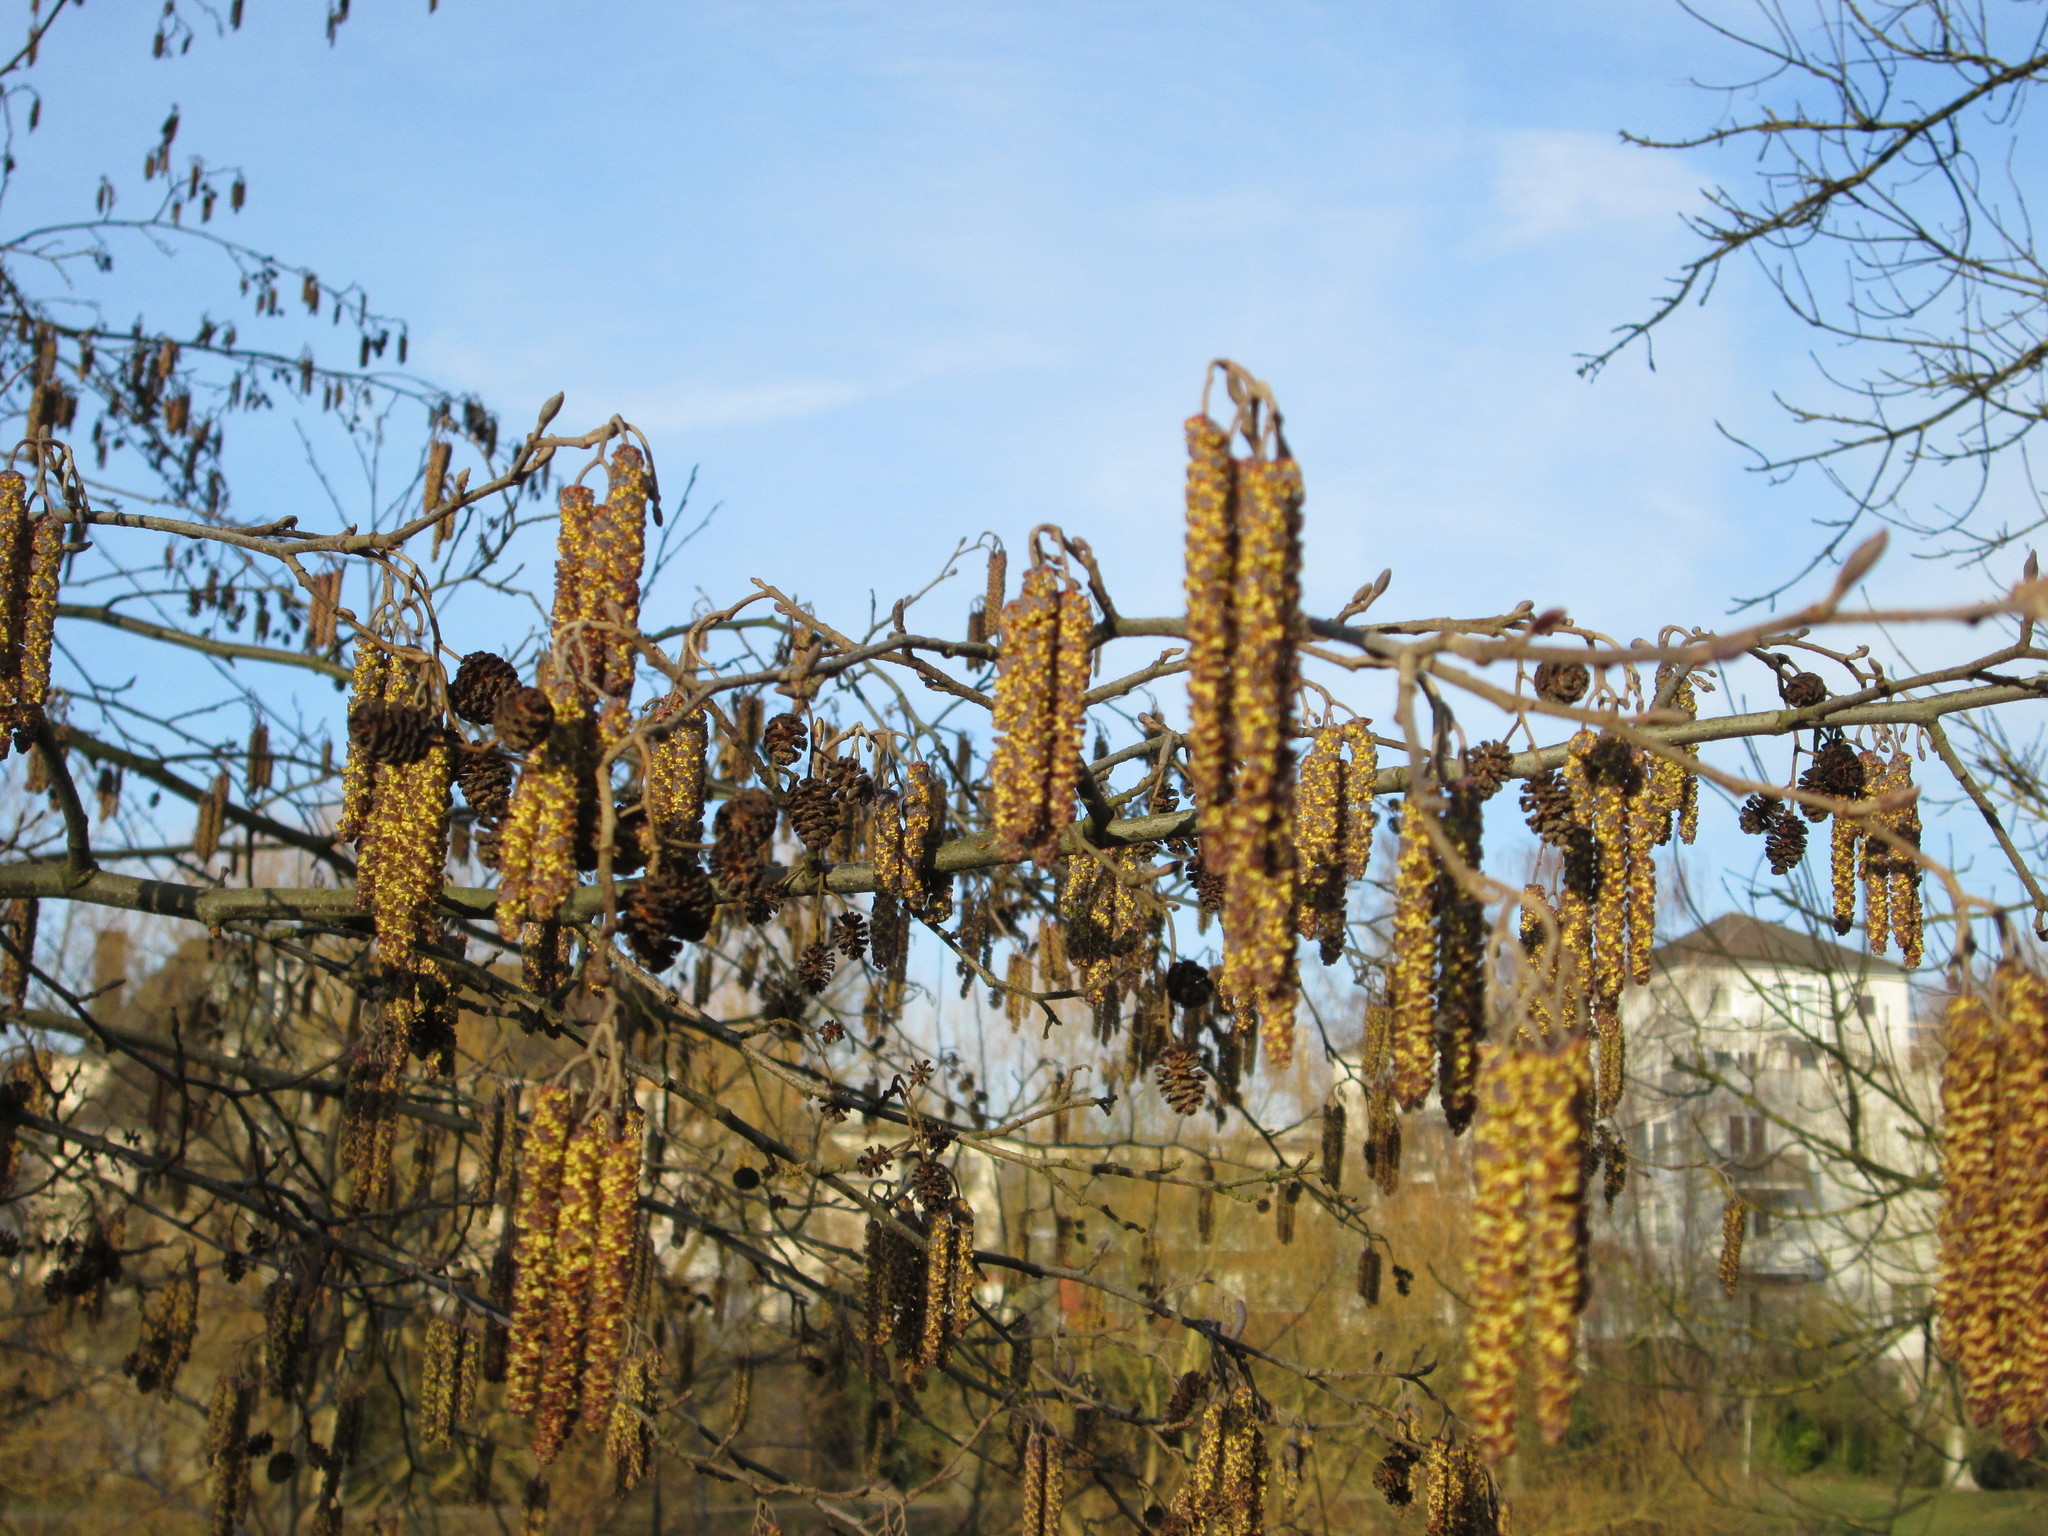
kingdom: Plantae
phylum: Tracheophyta
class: Magnoliopsida
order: Fagales
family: Betulaceae
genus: Alnus
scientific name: Alnus glutinosa
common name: Black alder
